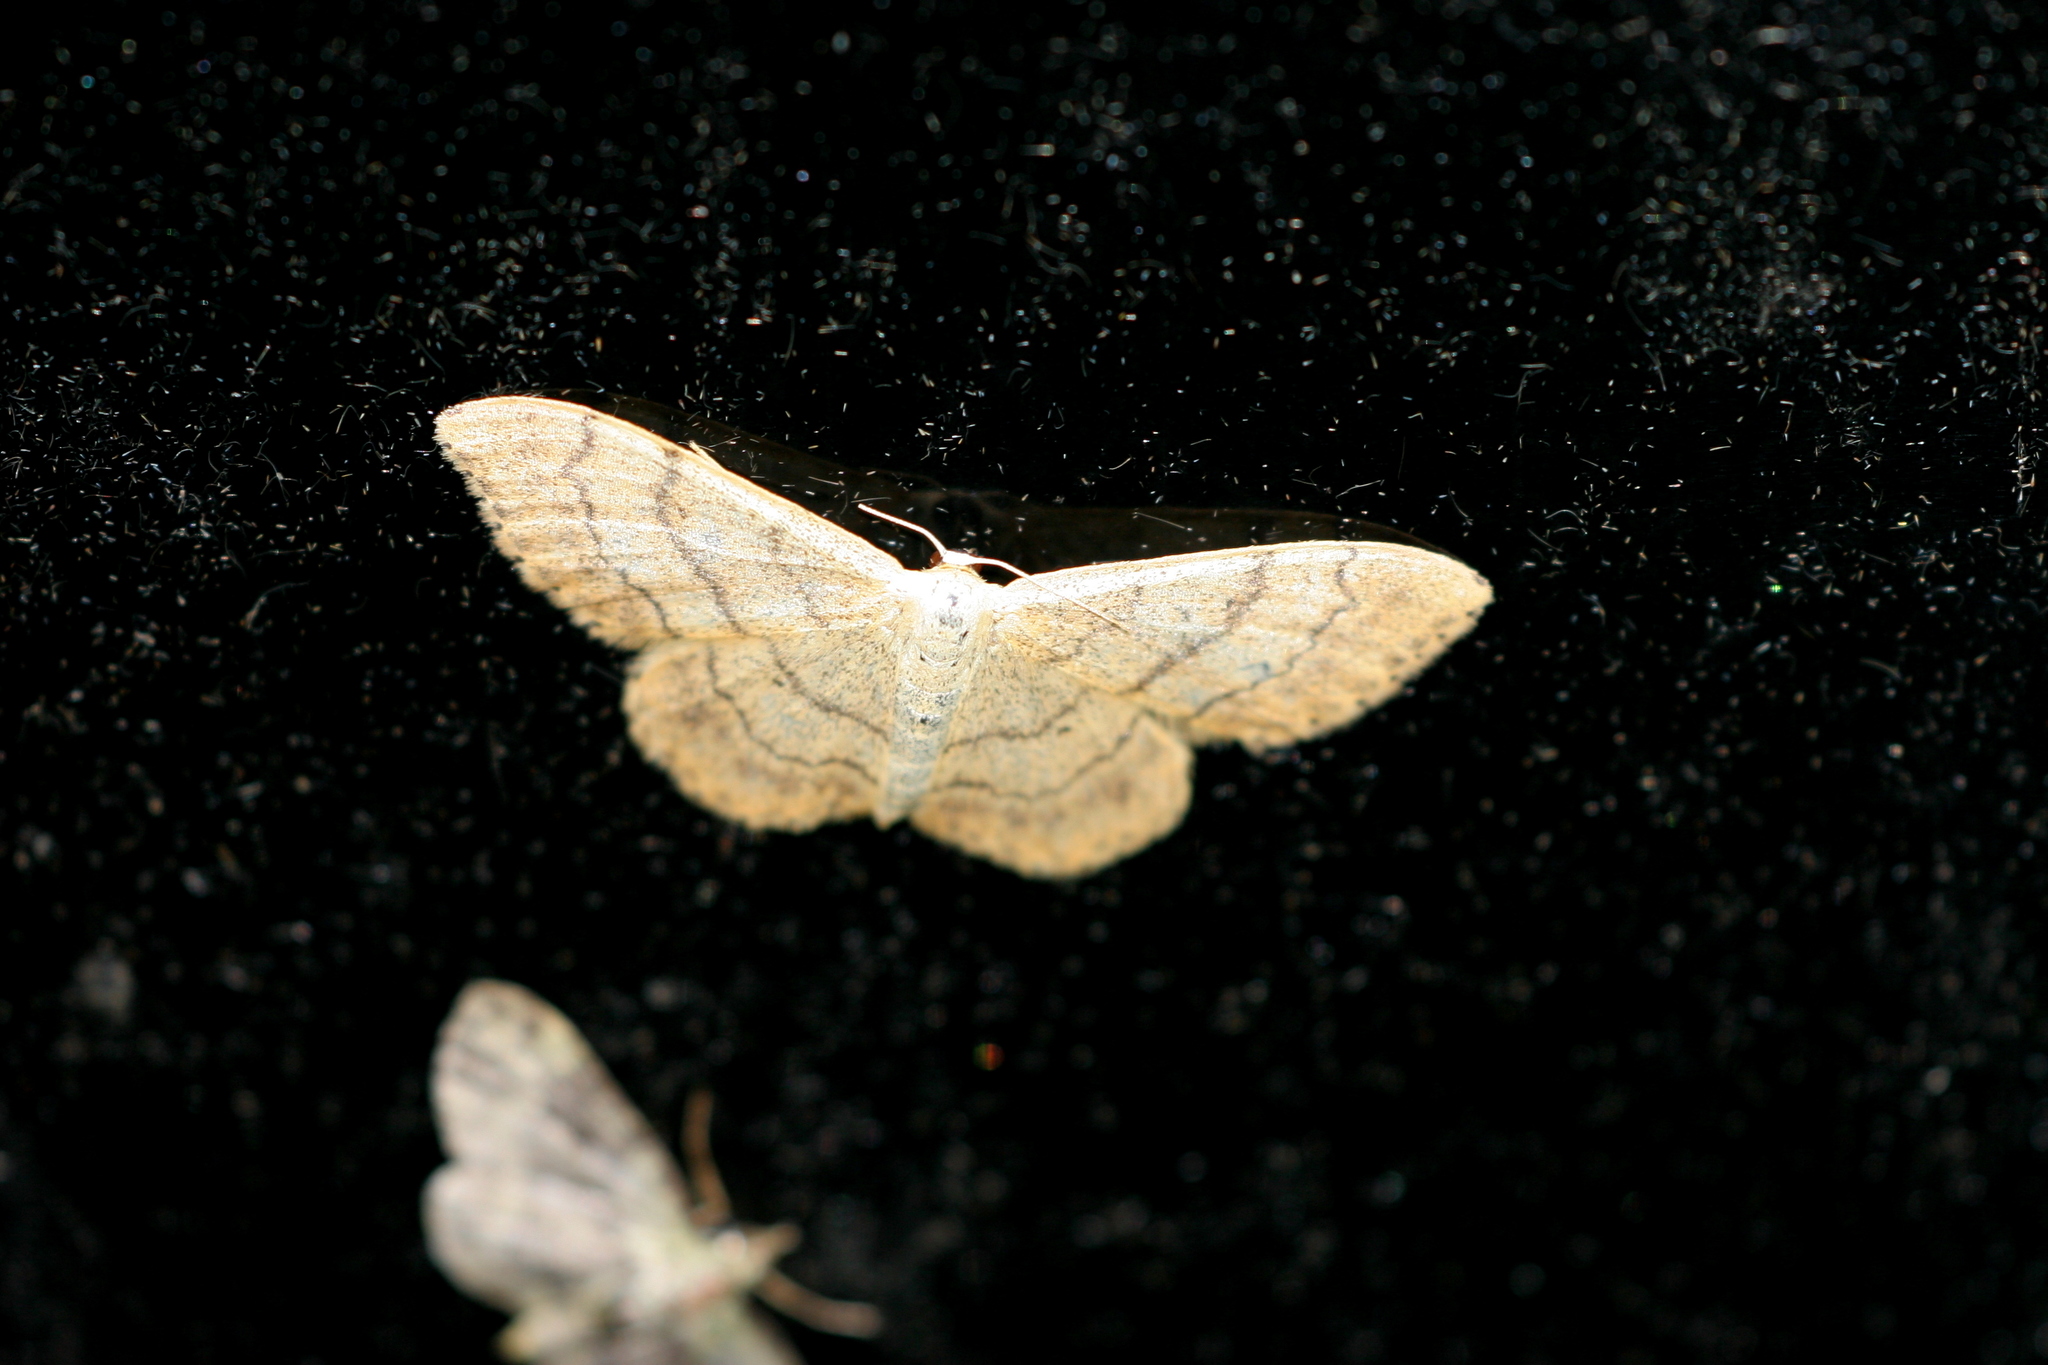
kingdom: Animalia
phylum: Arthropoda
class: Insecta
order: Lepidoptera
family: Geometridae
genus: Idaea
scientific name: Idaea aversata
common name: Riband wave
